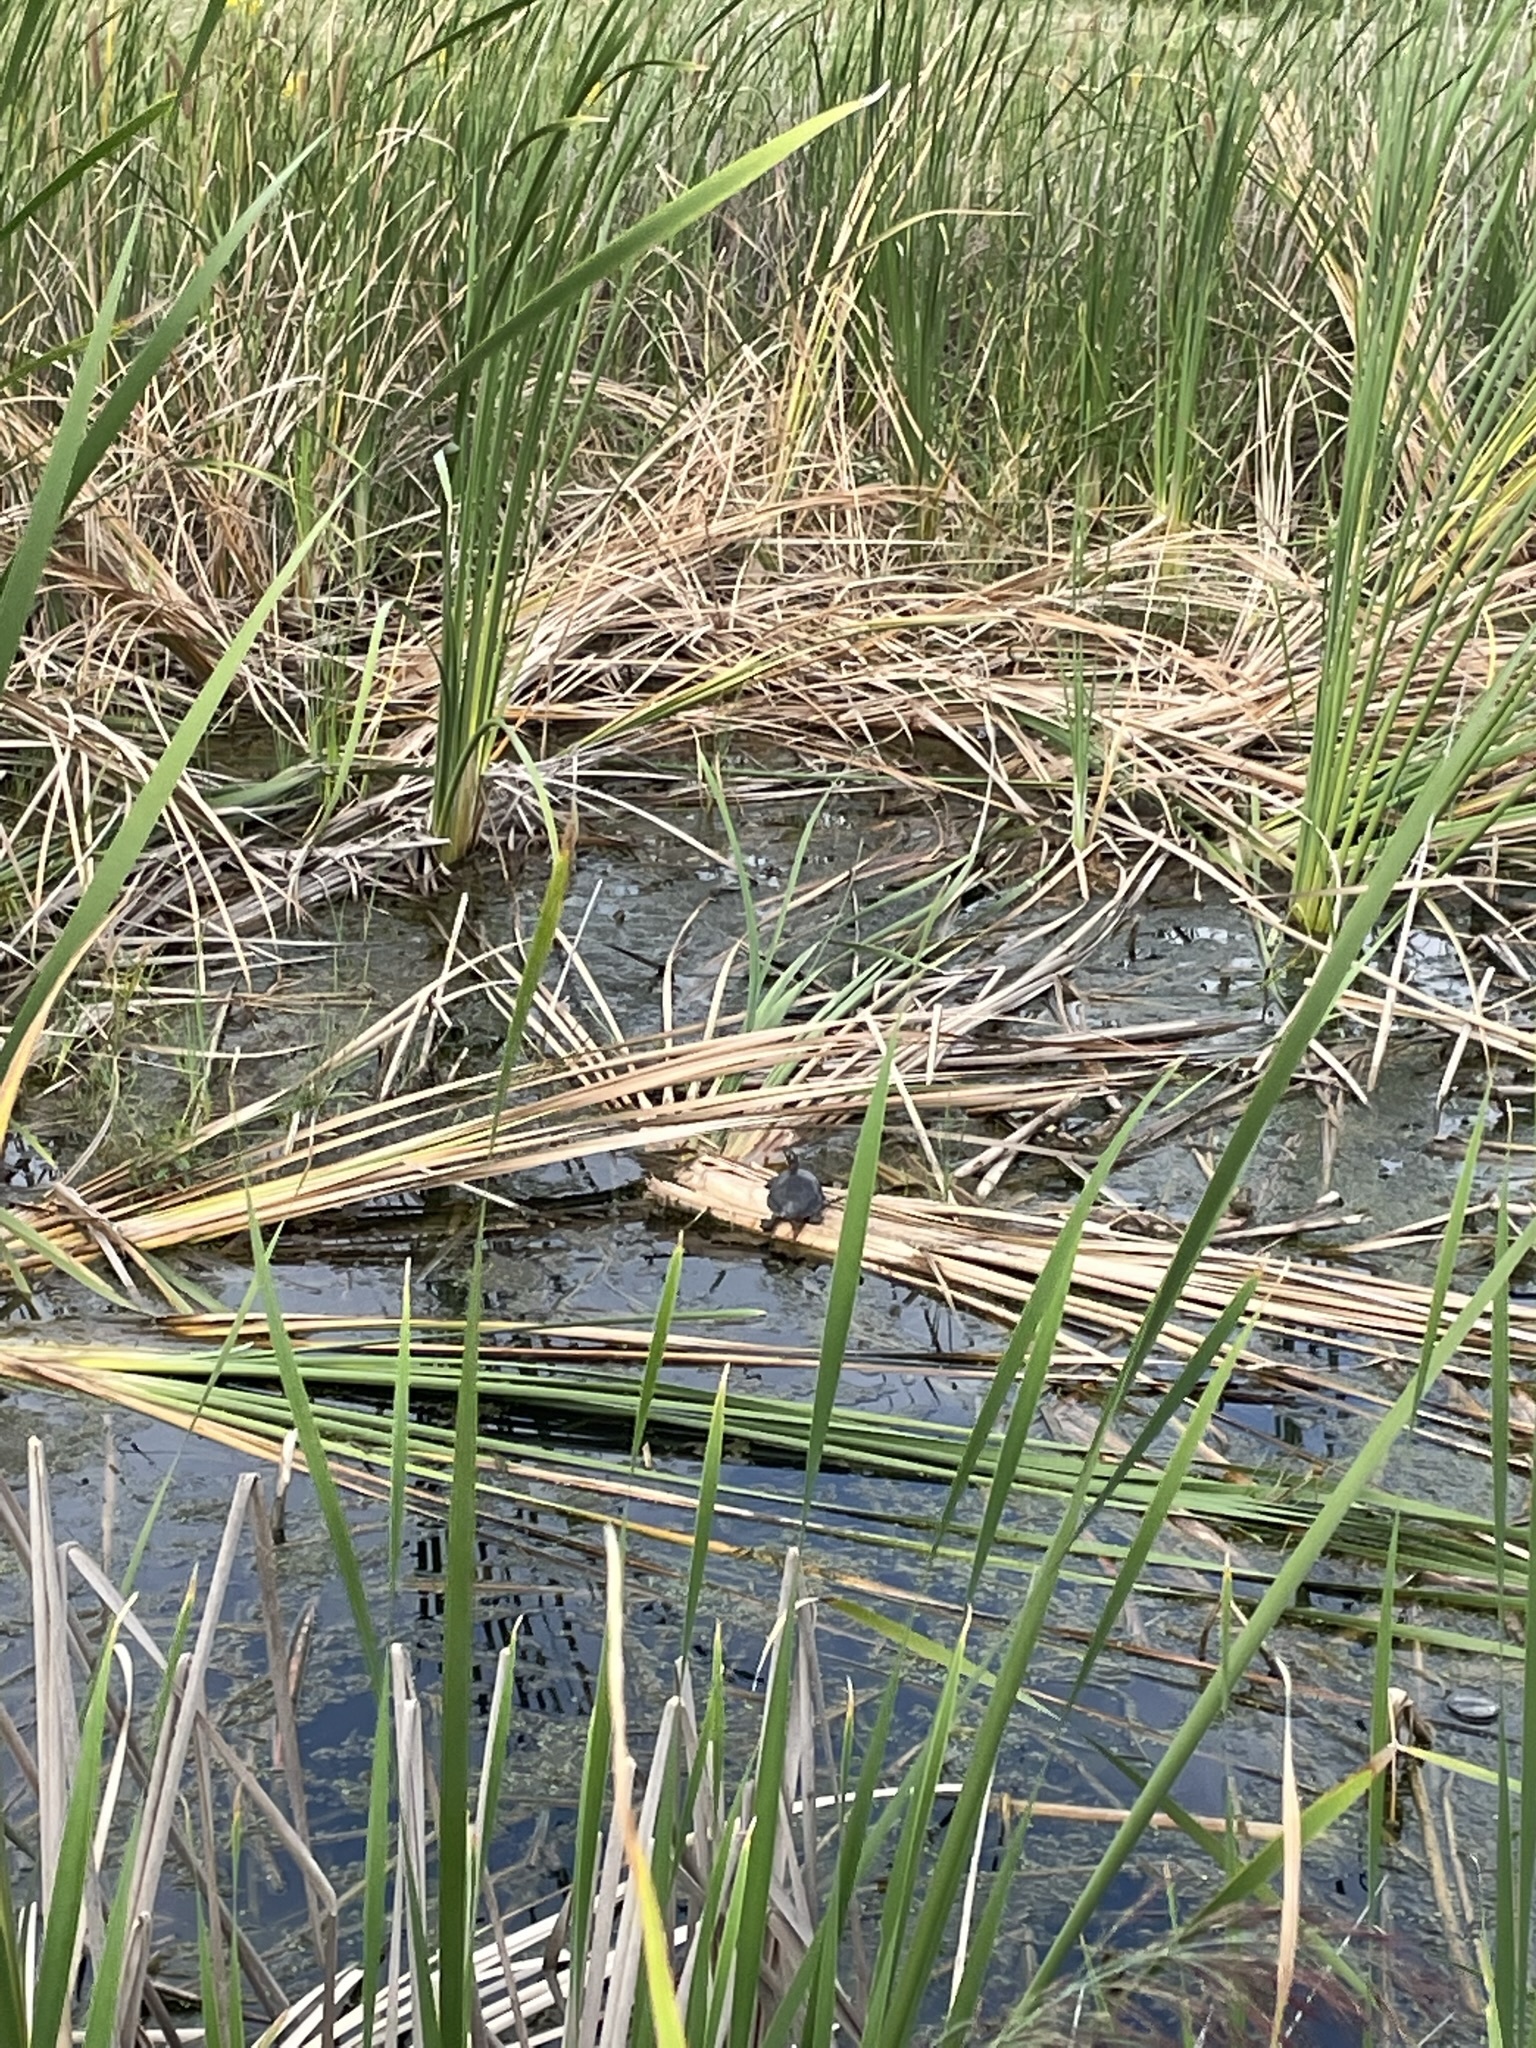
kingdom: Animalia
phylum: Chordata
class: Testudines
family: Emydidae
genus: Chrysemys
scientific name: Chrysemys picta
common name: Painted turtle
